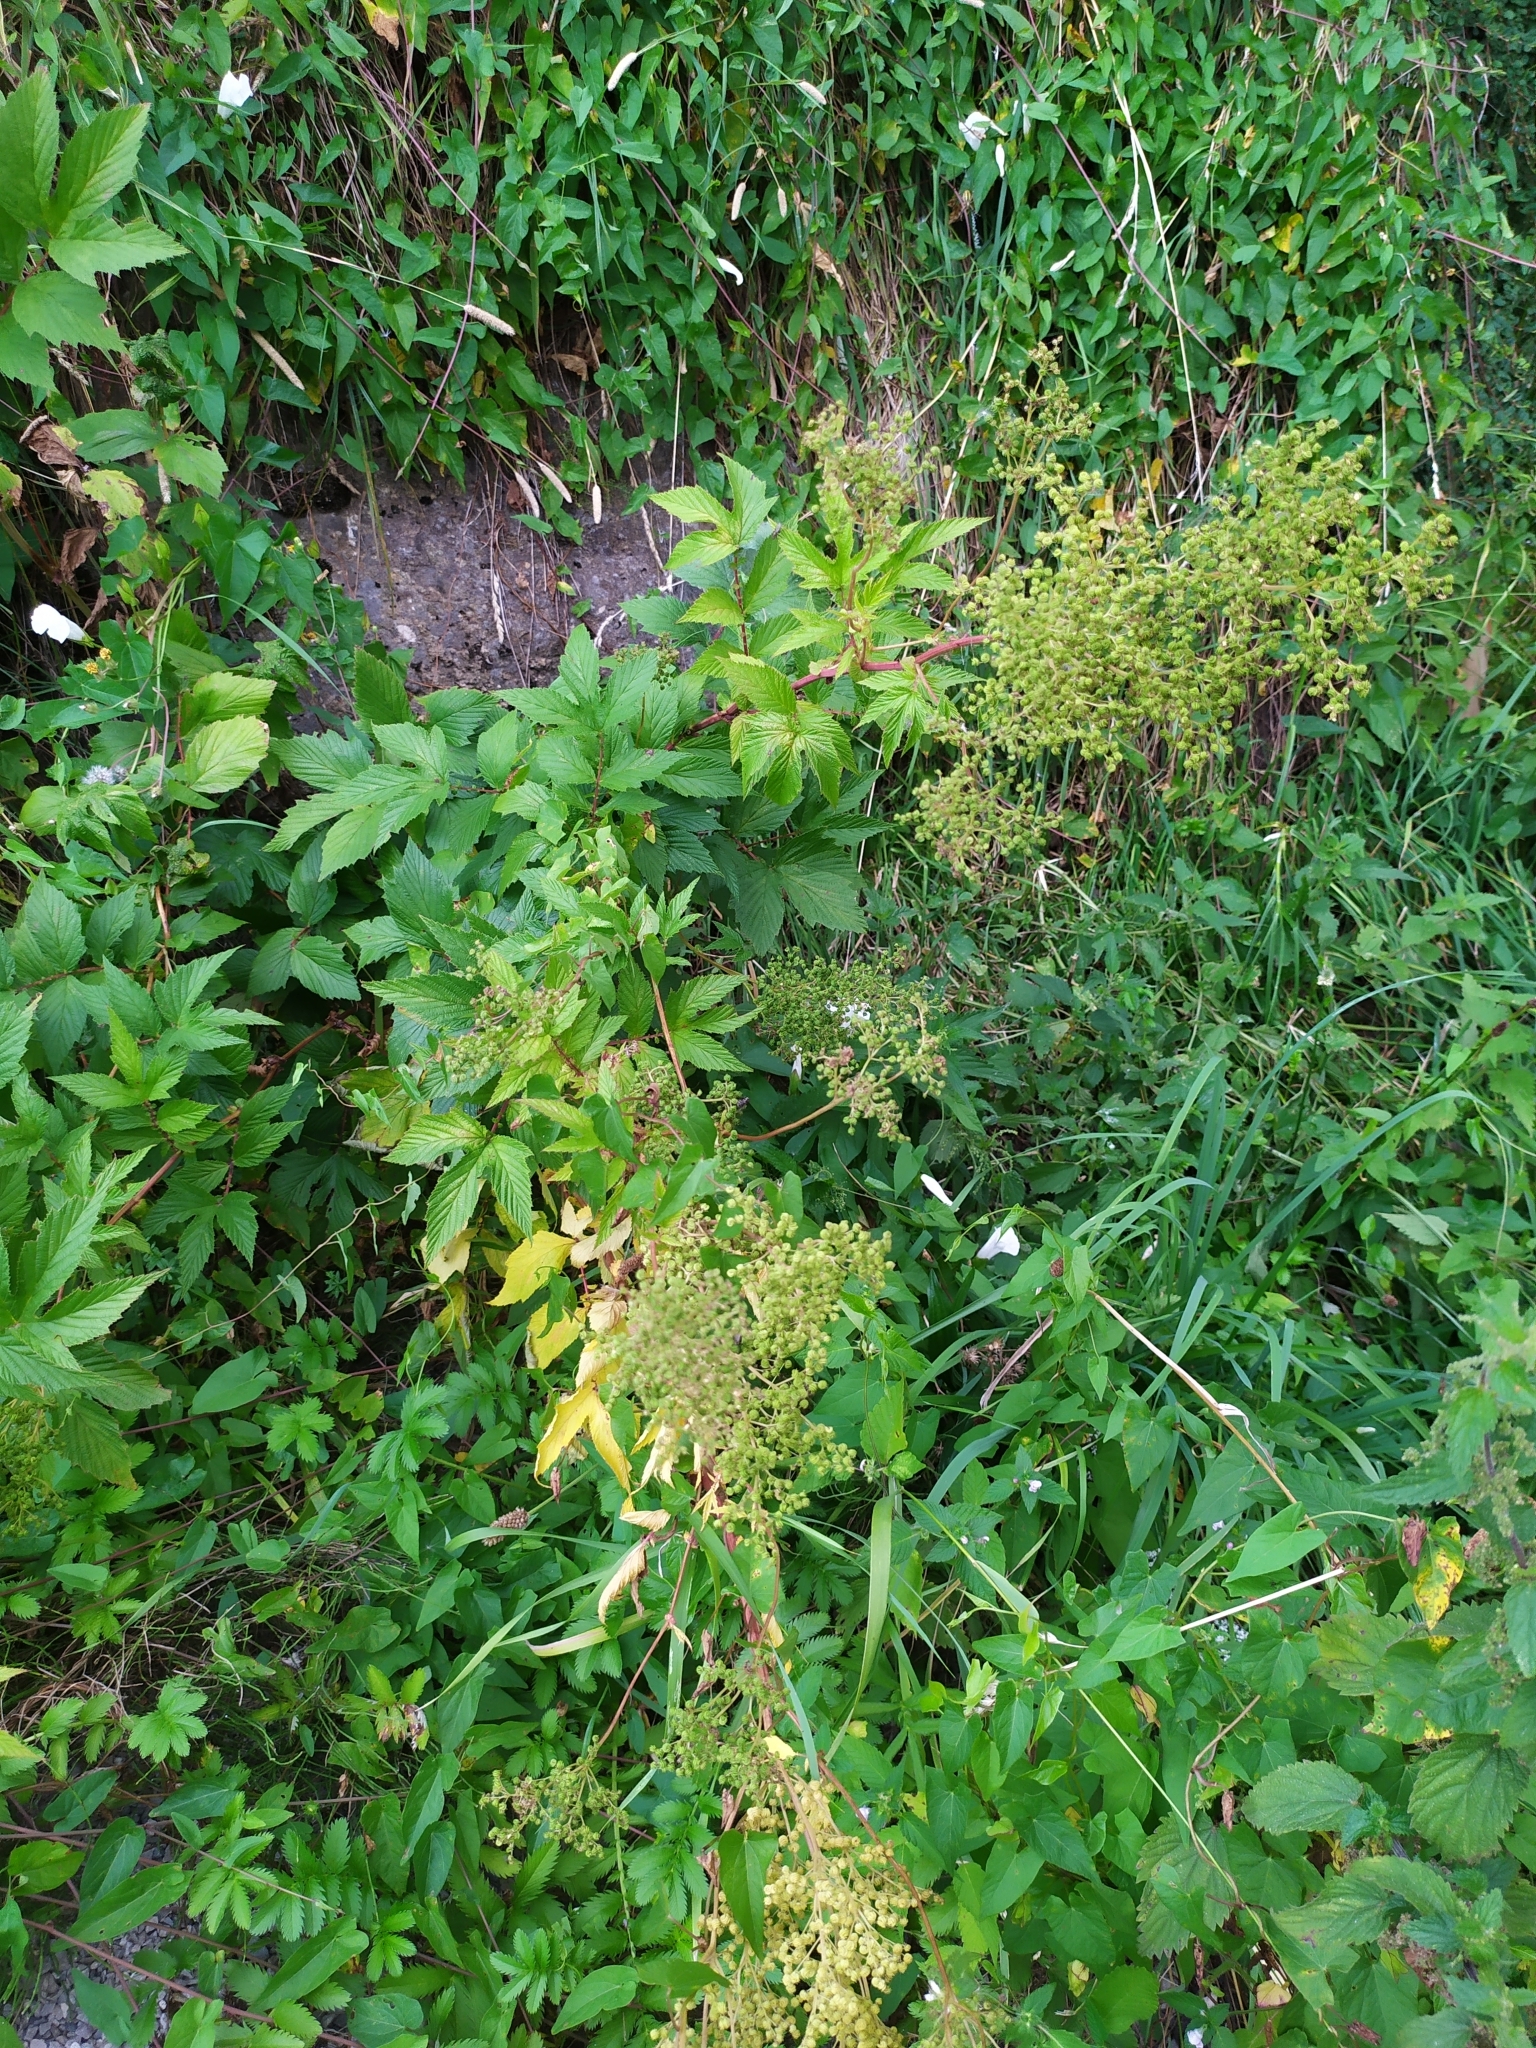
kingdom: Plantae
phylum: Tracheophyta
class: Magnoliopsida
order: Rosales
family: Rosaceae
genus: Filipendula
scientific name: Filipendula ulmaria
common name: Meadowsweet
